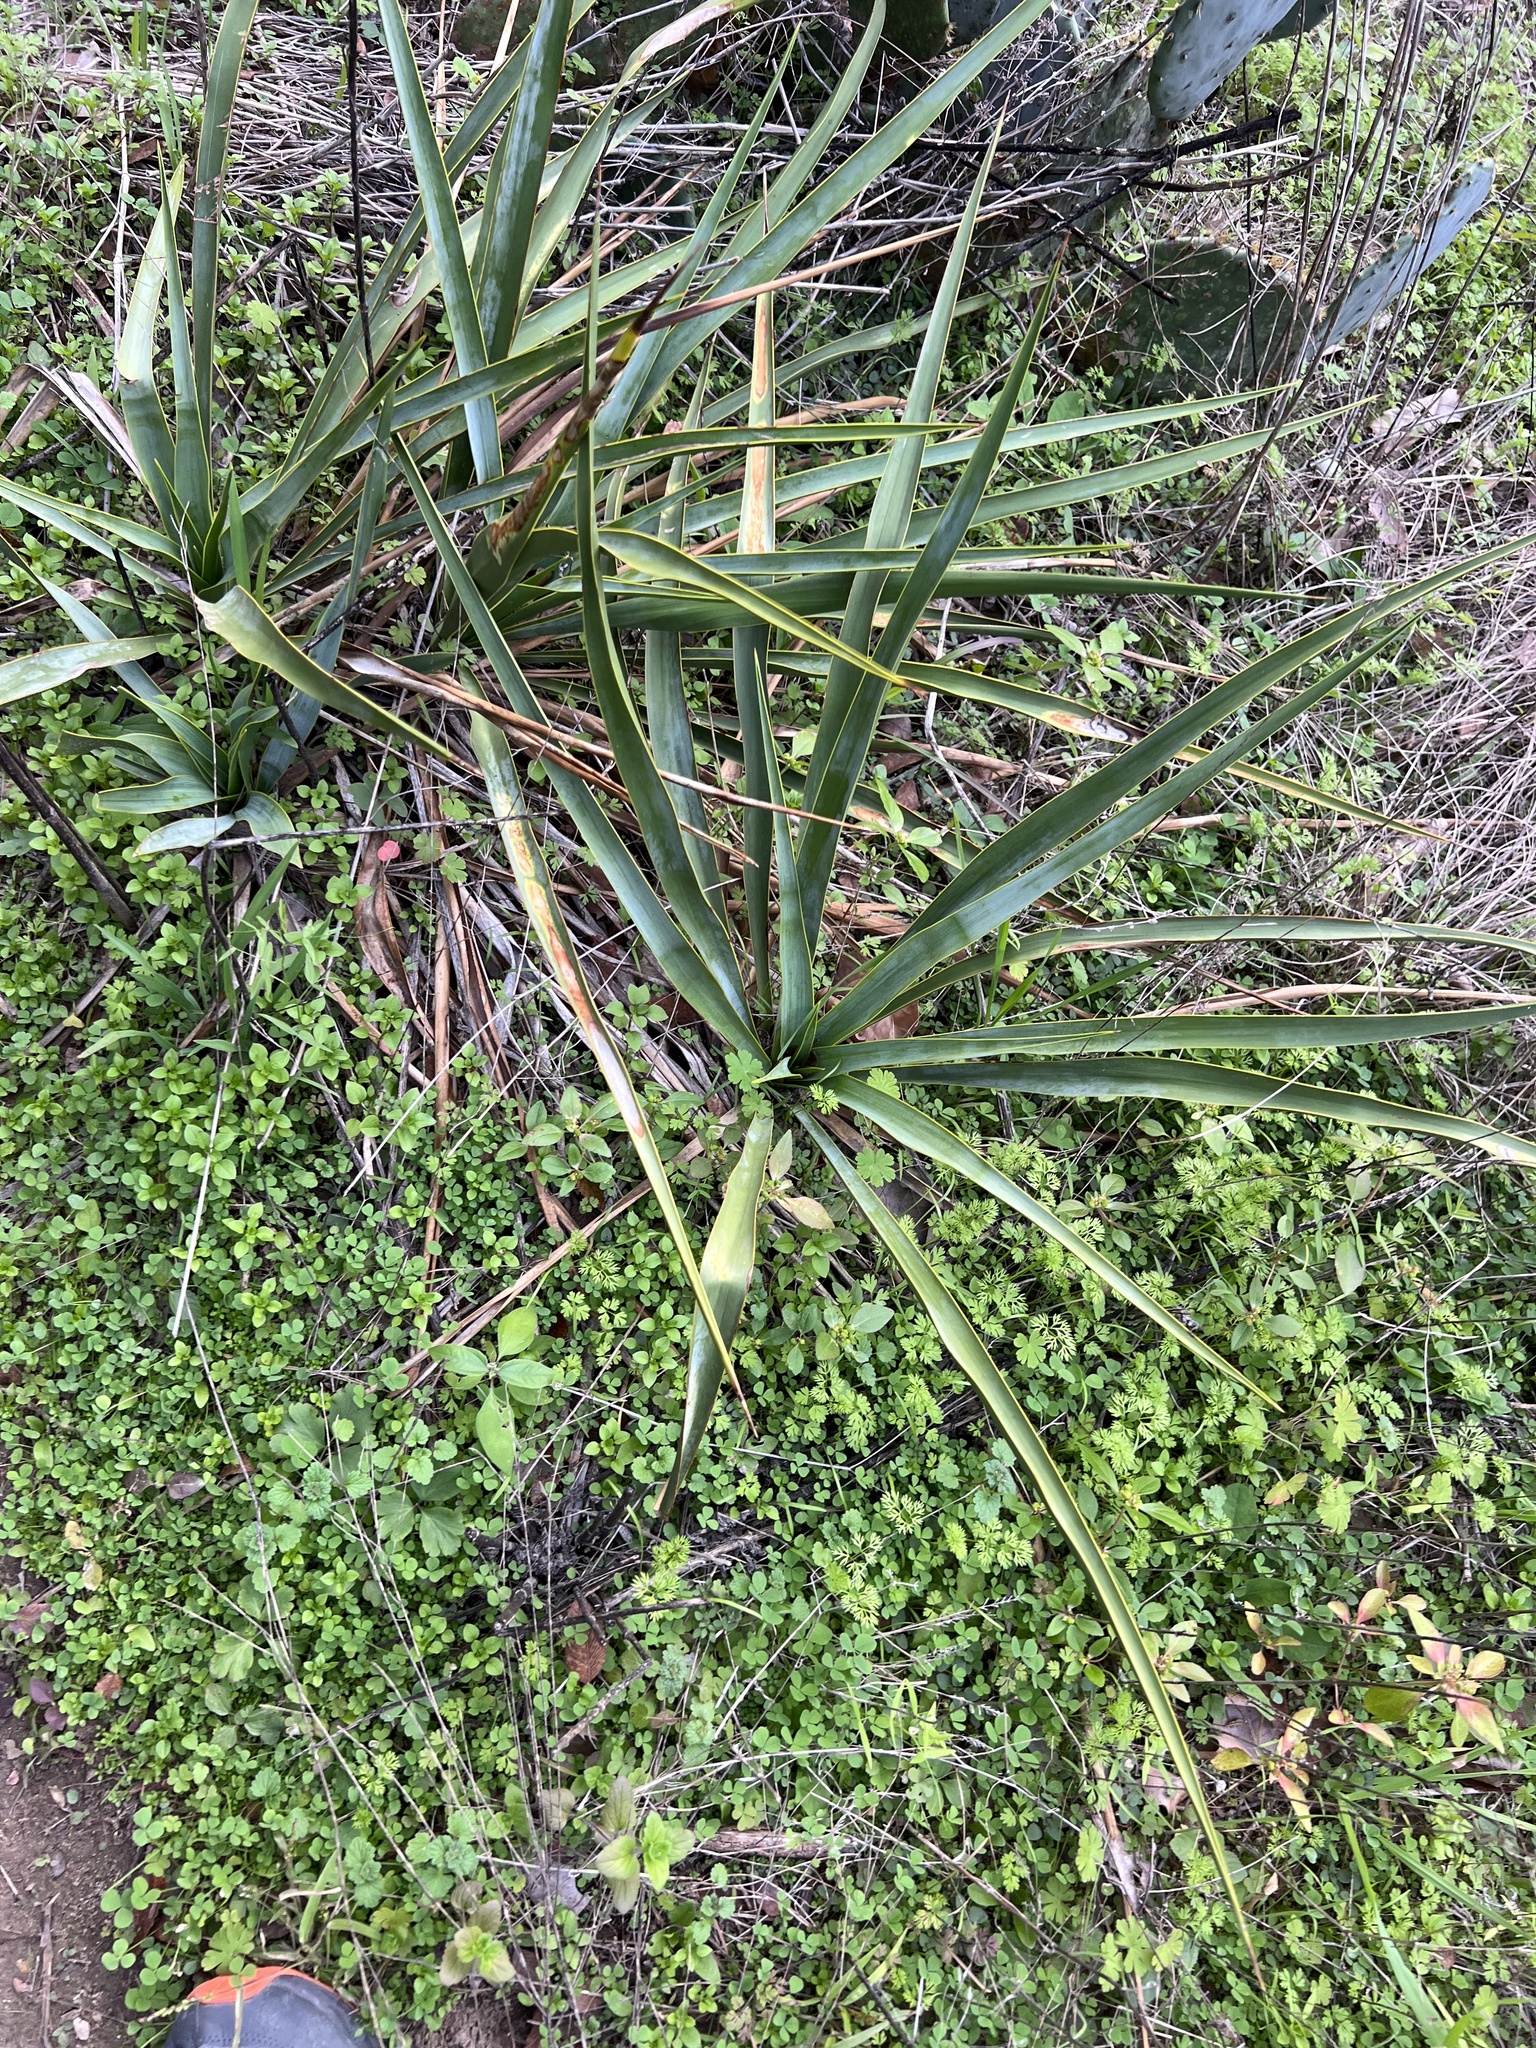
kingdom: Plantae
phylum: Tracheophyta
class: Liliopsida
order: Asparagales
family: Asparagaceae
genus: Yucca
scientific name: Yucca rupicola
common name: Twisted-leaf spanish-dagger
